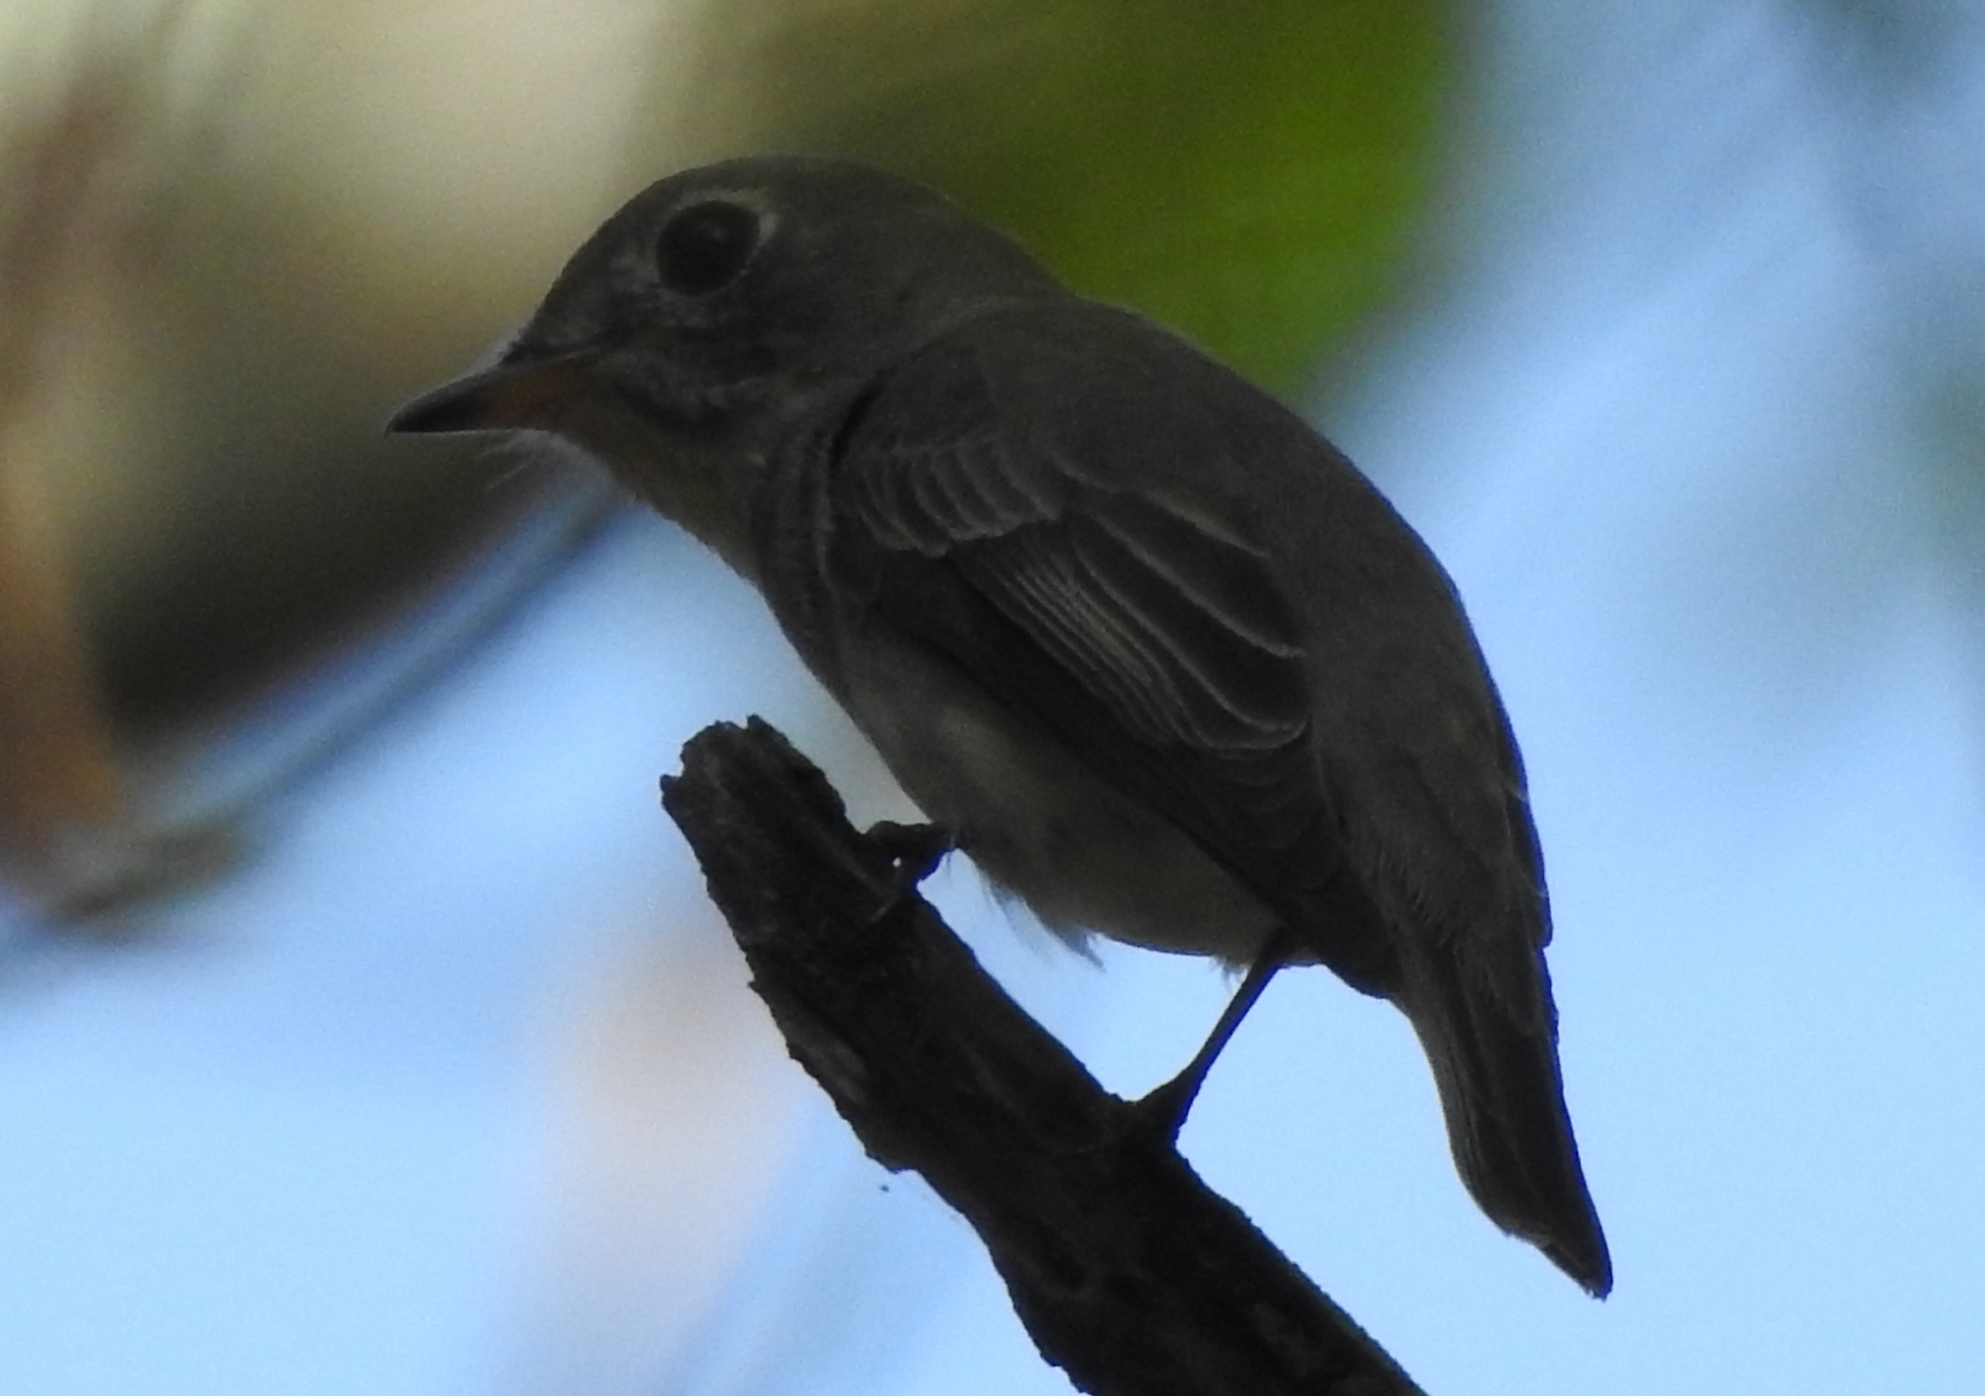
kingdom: Animalia
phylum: Chordata
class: Aves
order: Passeriformes
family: Muscicapidae
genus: Muscicapa
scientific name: Muscicapa latirostris
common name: Asian brown flycatcher
